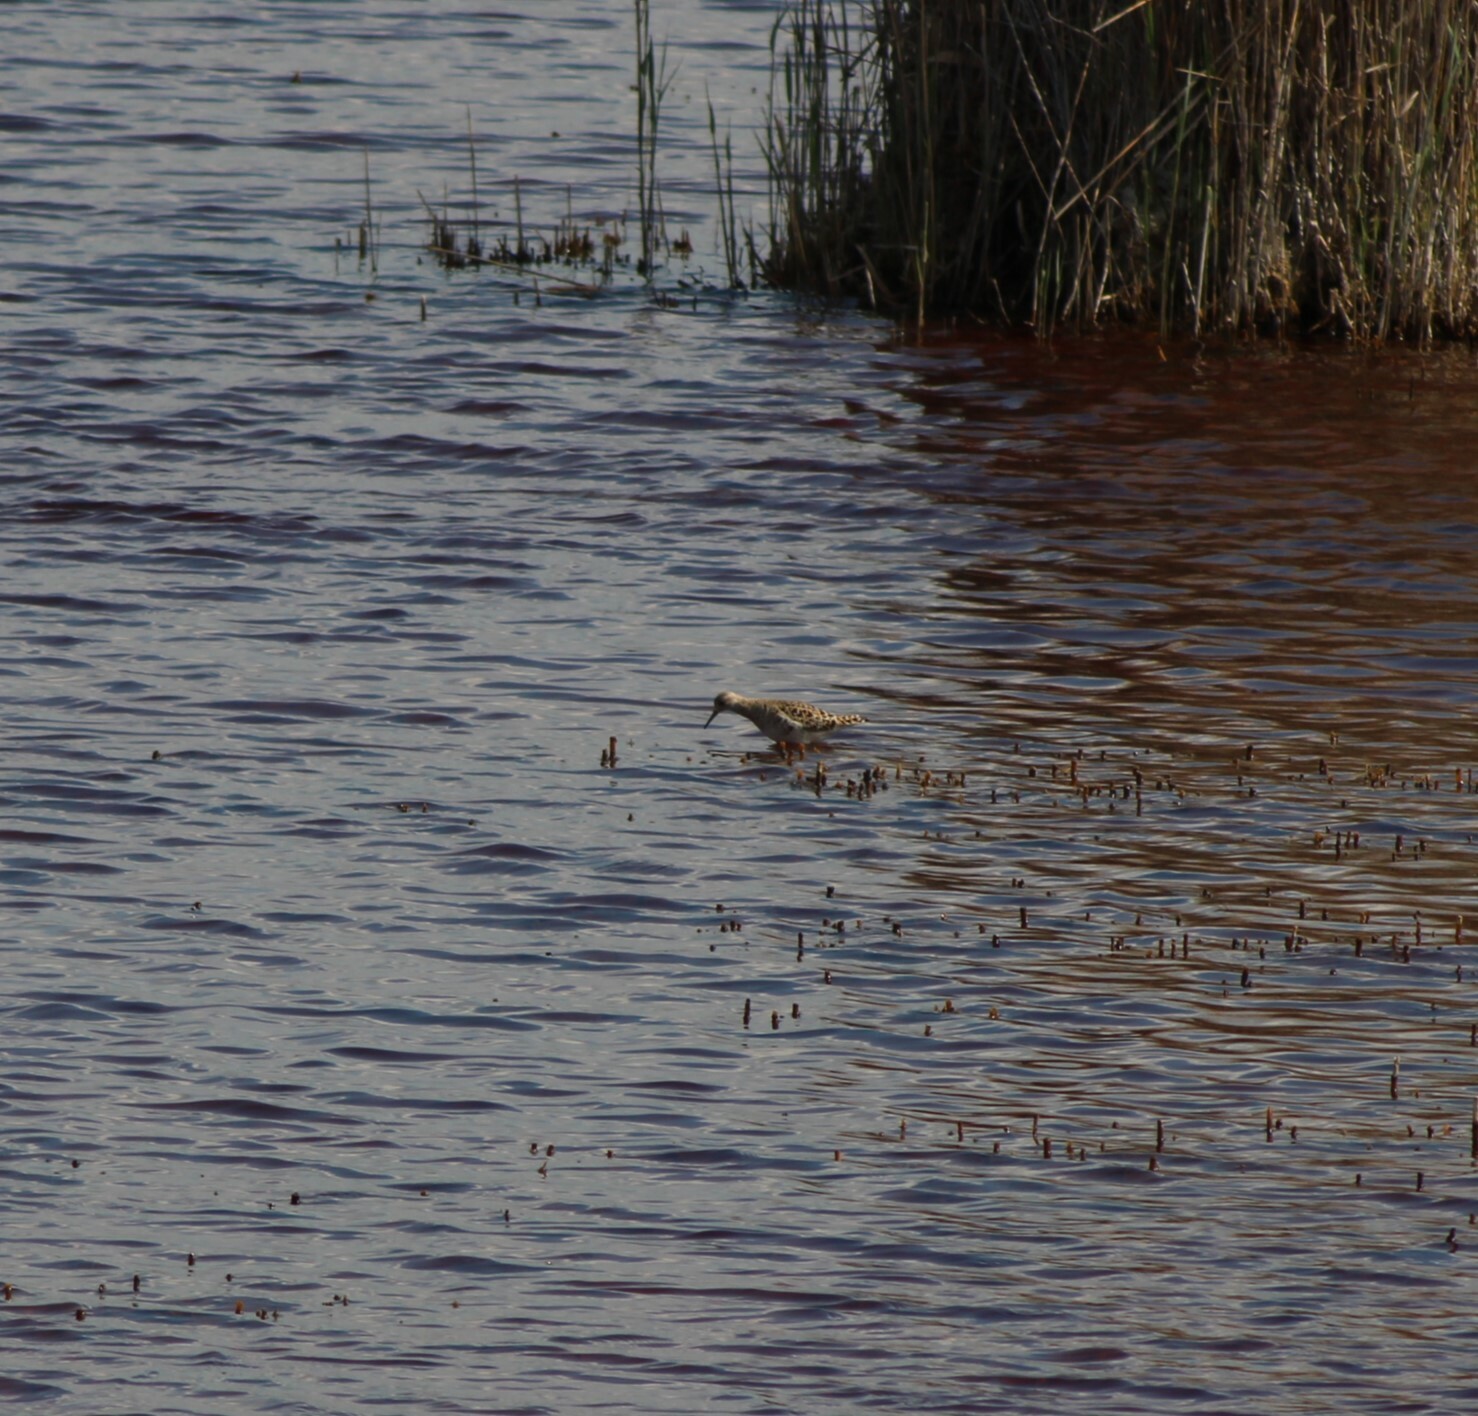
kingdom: Animalia
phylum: Chordata
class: Aves
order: Charadriiformes
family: Scolopacidae
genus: Calidris
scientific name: Calidris pugnax
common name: Ruff
